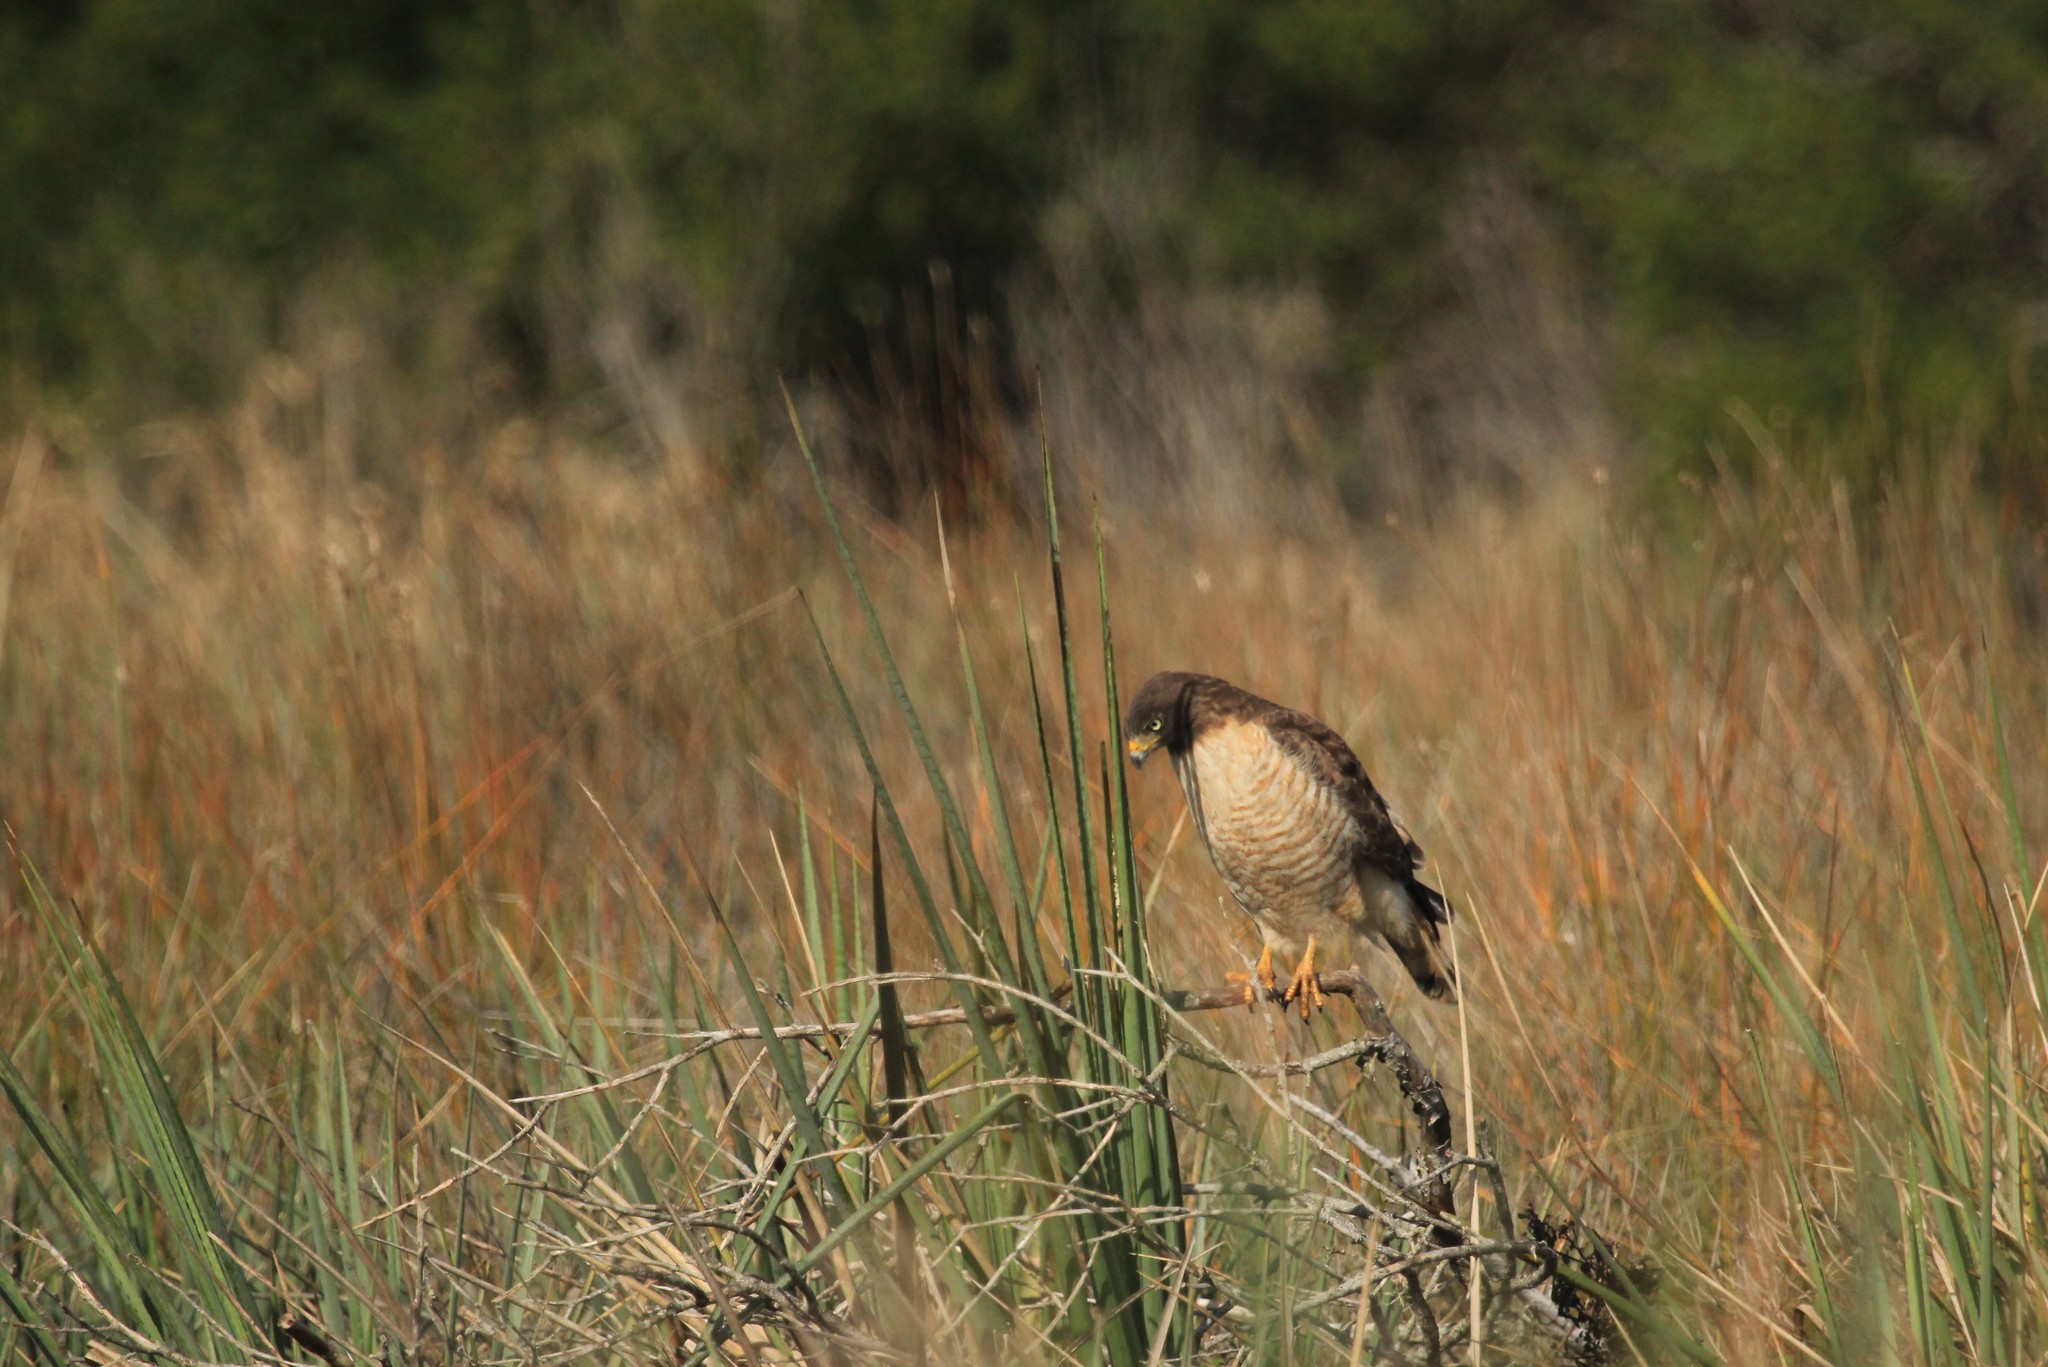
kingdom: Animalia
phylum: Chordata
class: Aves
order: Accipitriformes
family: Accipitridae
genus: Rupornis
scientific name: Rupornis magnirostris
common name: Roadside hawk
